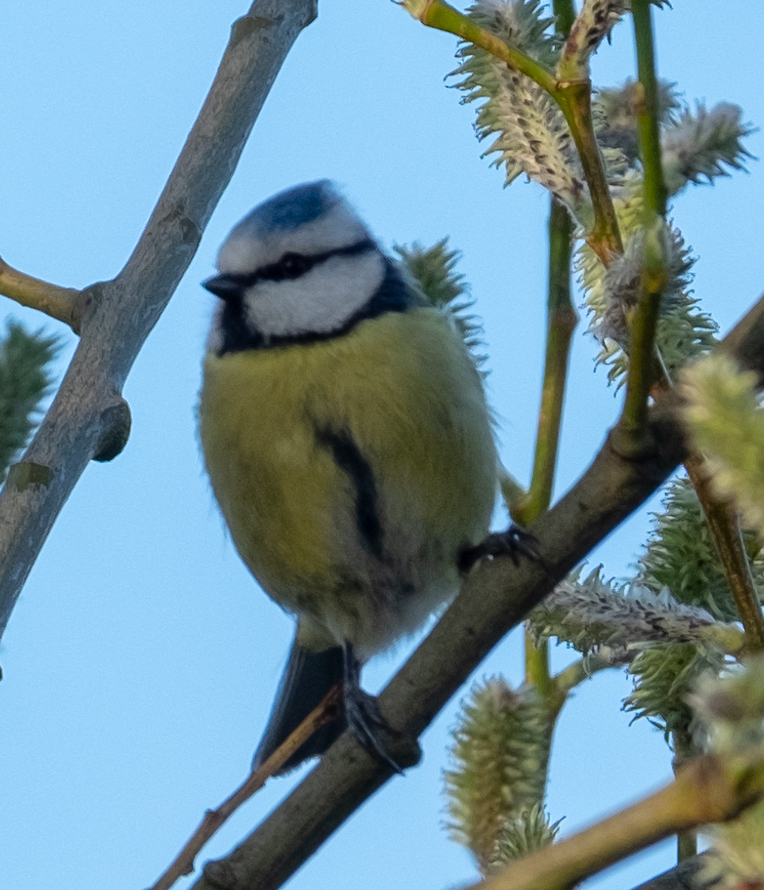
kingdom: Animalia
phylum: Chordata
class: Aves
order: Passeriformes
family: Paridae
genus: Cyanistes
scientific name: Cyanistes caeruleus
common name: Eurasian blue tit
